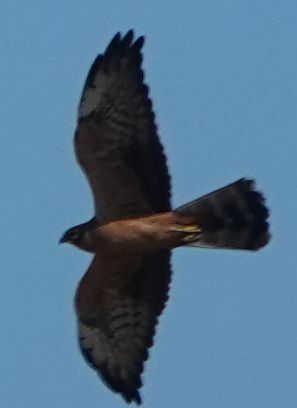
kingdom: Animalia
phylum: Chordata
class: Aves
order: Accipitriformes
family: Accipitridae
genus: Circus
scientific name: Circus pygargus
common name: Montagu's harrier
